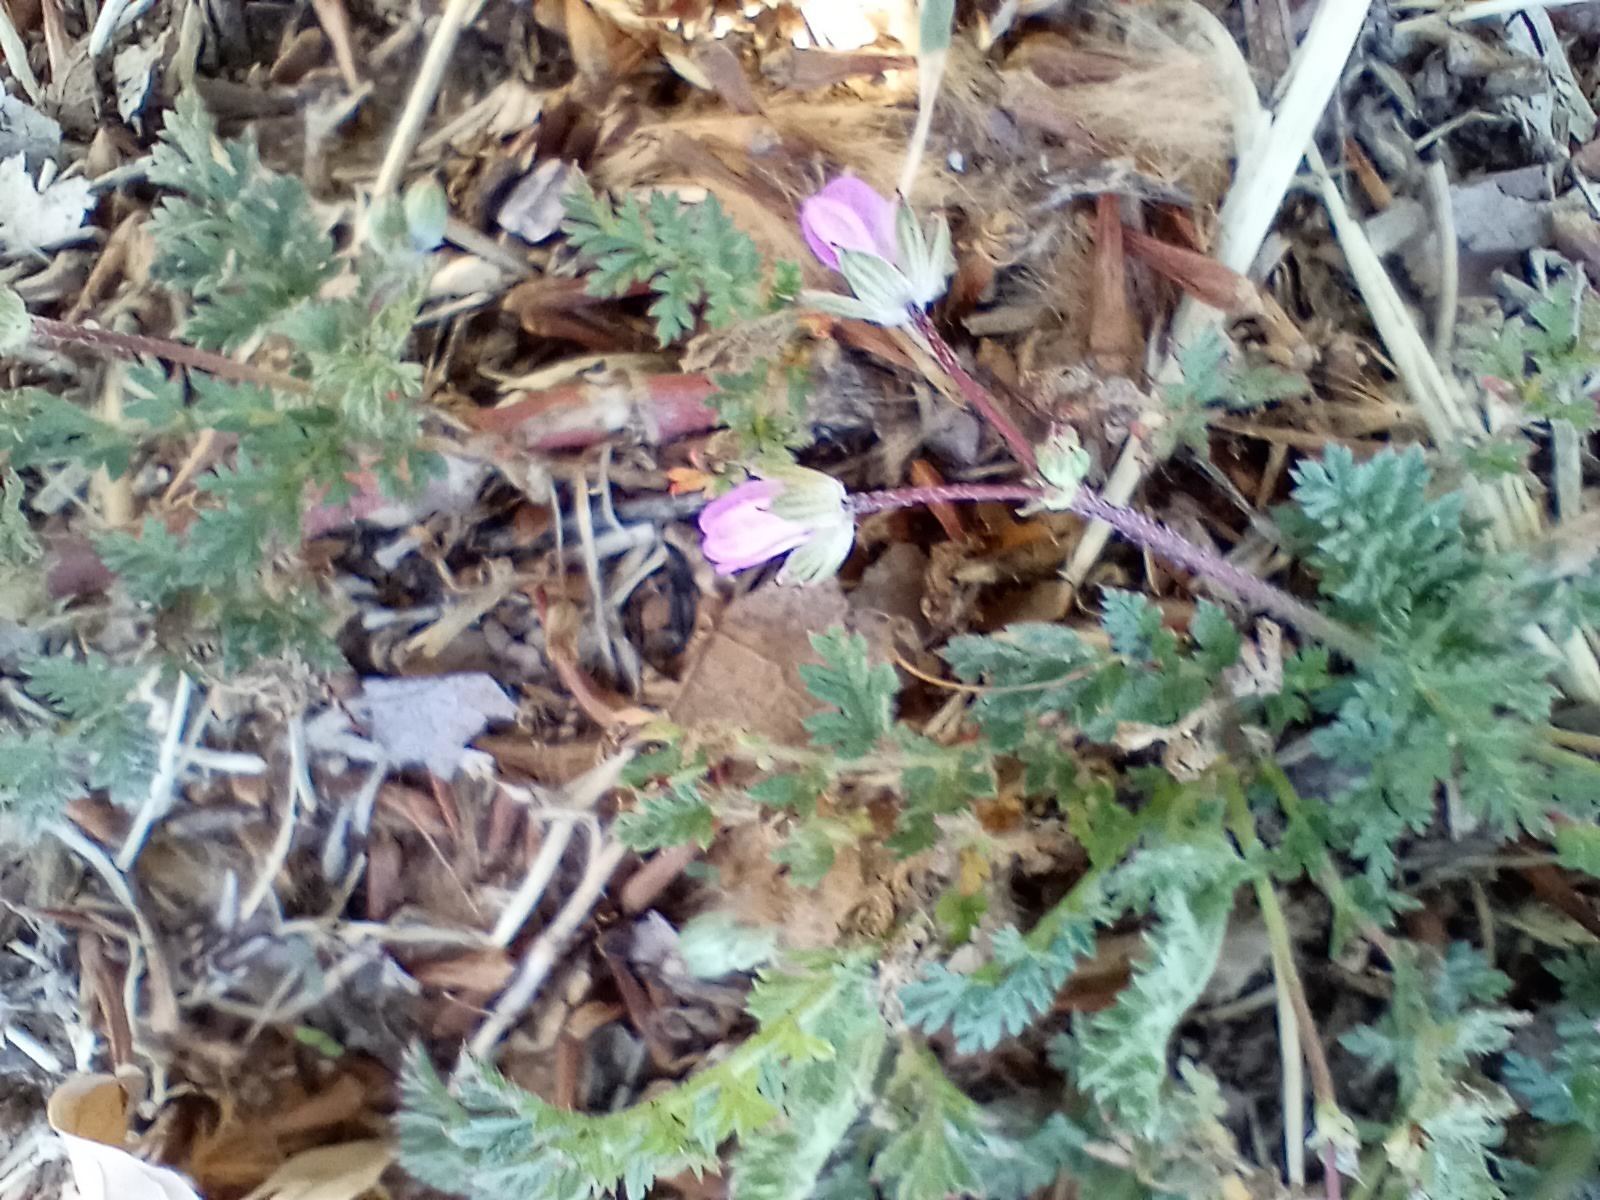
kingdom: Plantae
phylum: Tracheophyta
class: Magnoliopsida
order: Geraniales
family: Geraniaceae
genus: Erodium
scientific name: Erodium cicutarium
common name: Common stork's-bill
